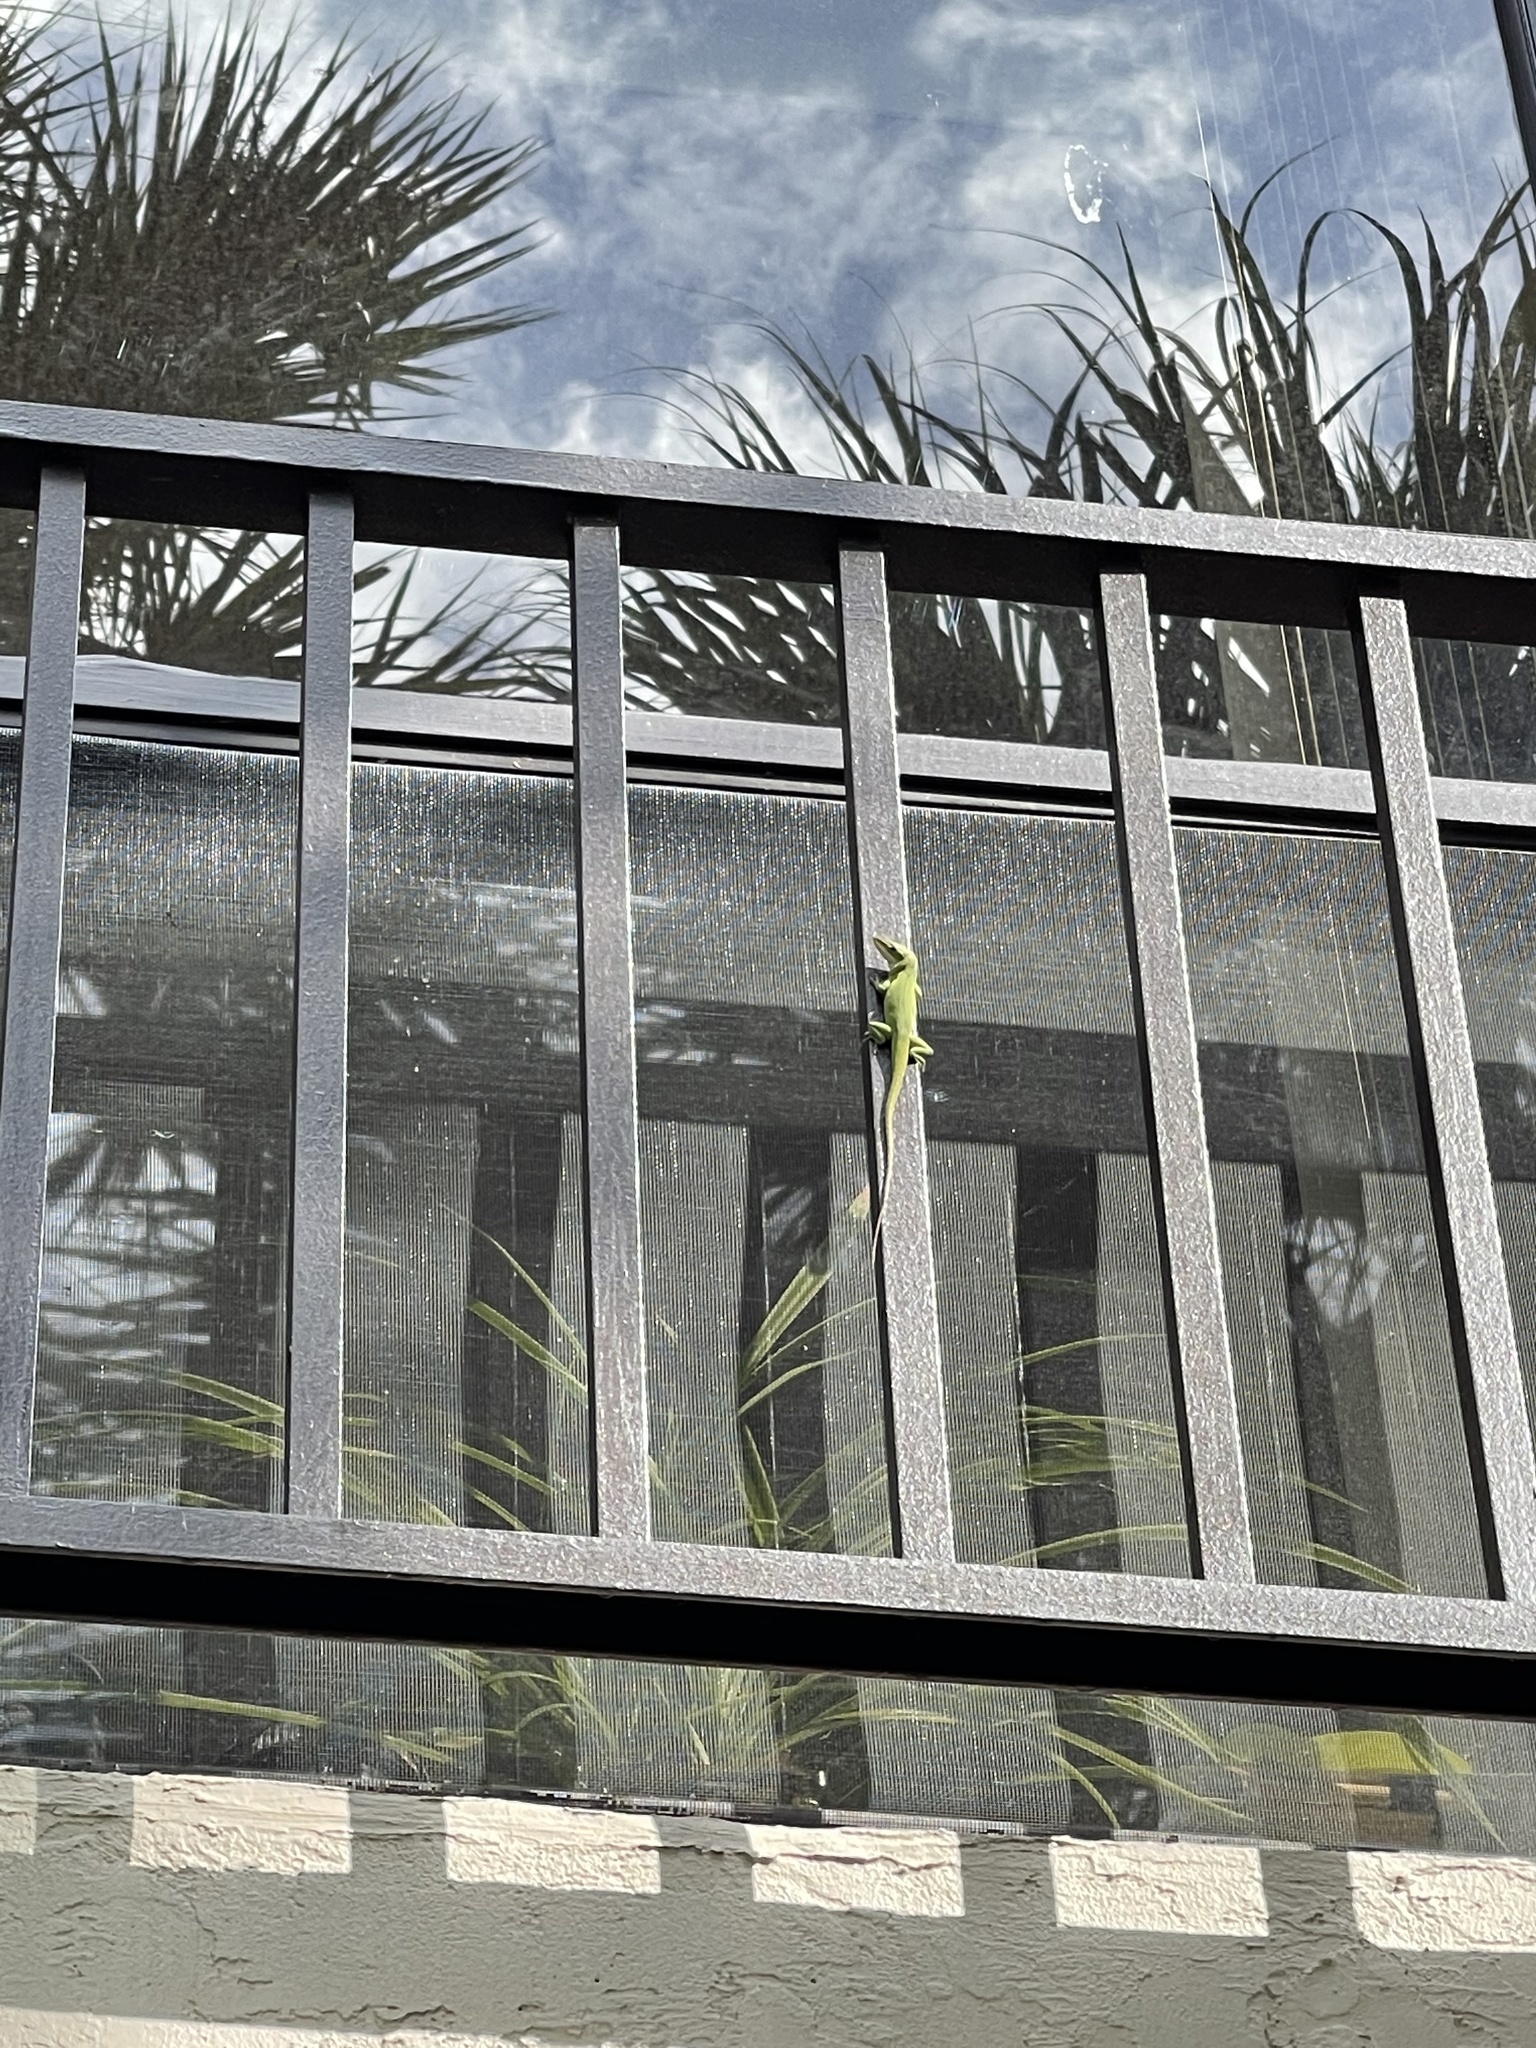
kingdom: Animalia
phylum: Chordata
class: Squamata
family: Dactyloidae
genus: Anolis
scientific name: Anolis carolinensis
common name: Green anole
